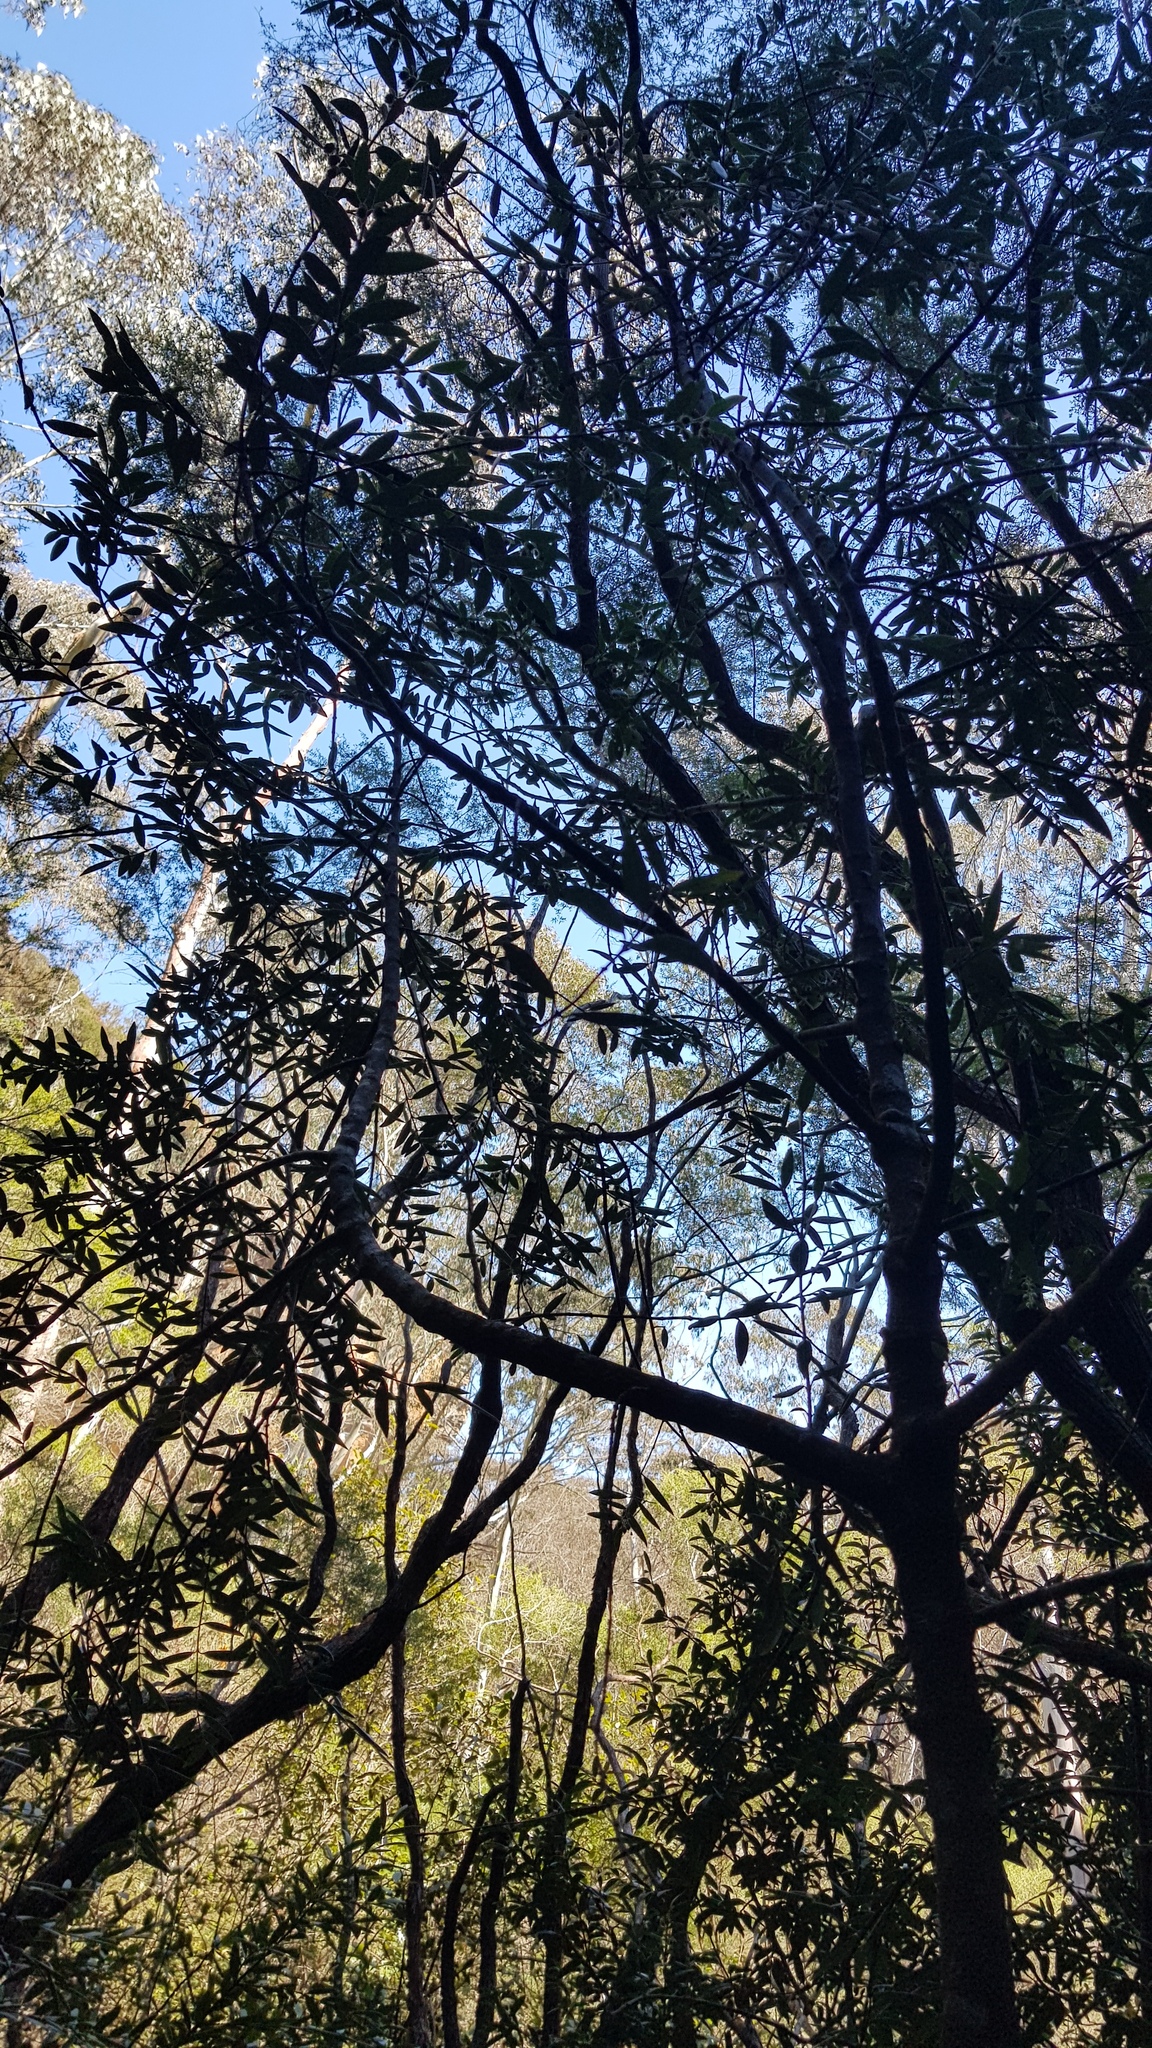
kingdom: Plantae
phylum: Tracheophyta
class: Magnoliopsida
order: Laurales
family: Atherospermataceae
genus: Atherosperma
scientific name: Atherosperma moschatum
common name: Tasmanian-sassafras
